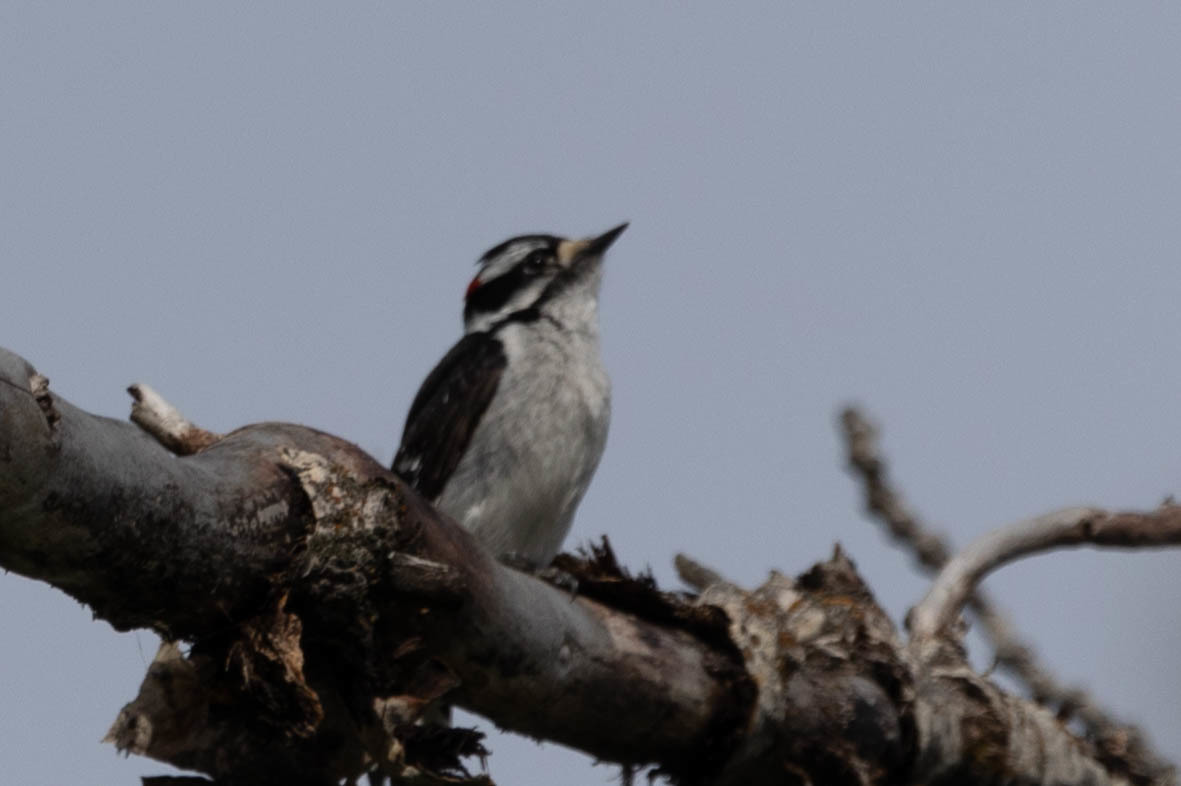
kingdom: Animalia
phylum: Chordata
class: Aves
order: Piciformes
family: Picidae
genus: Dryobates
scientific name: Dryobates pubescens
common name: Downy woodpecker
